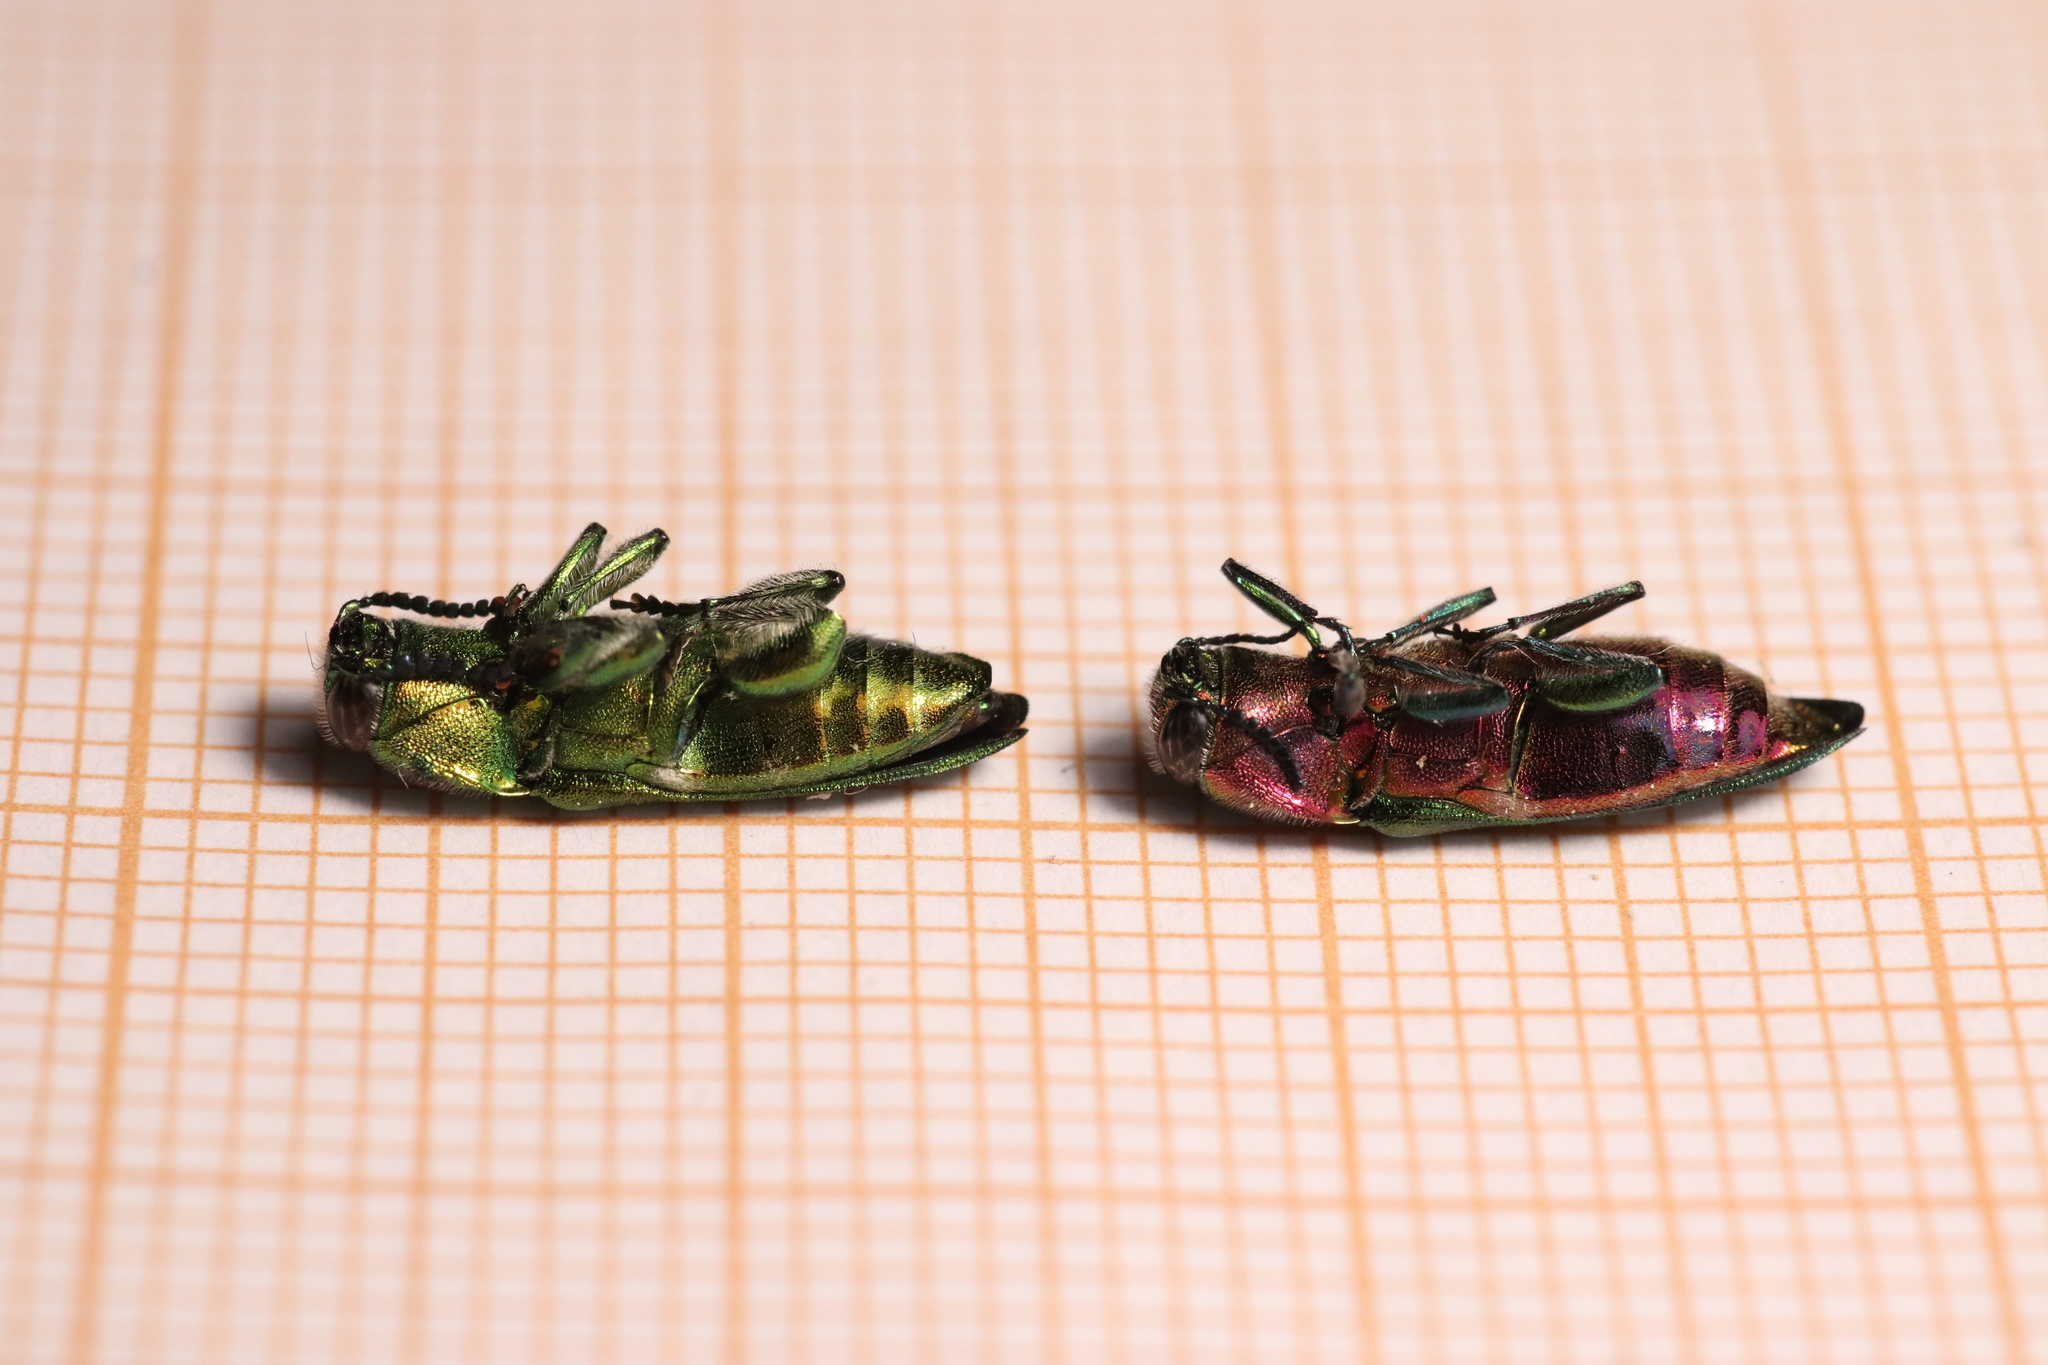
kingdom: Animalia
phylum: Arthropoda
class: Insecta
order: Coleoptera
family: Buprestidae
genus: Anthaxia
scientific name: Anthaxia hungarica
